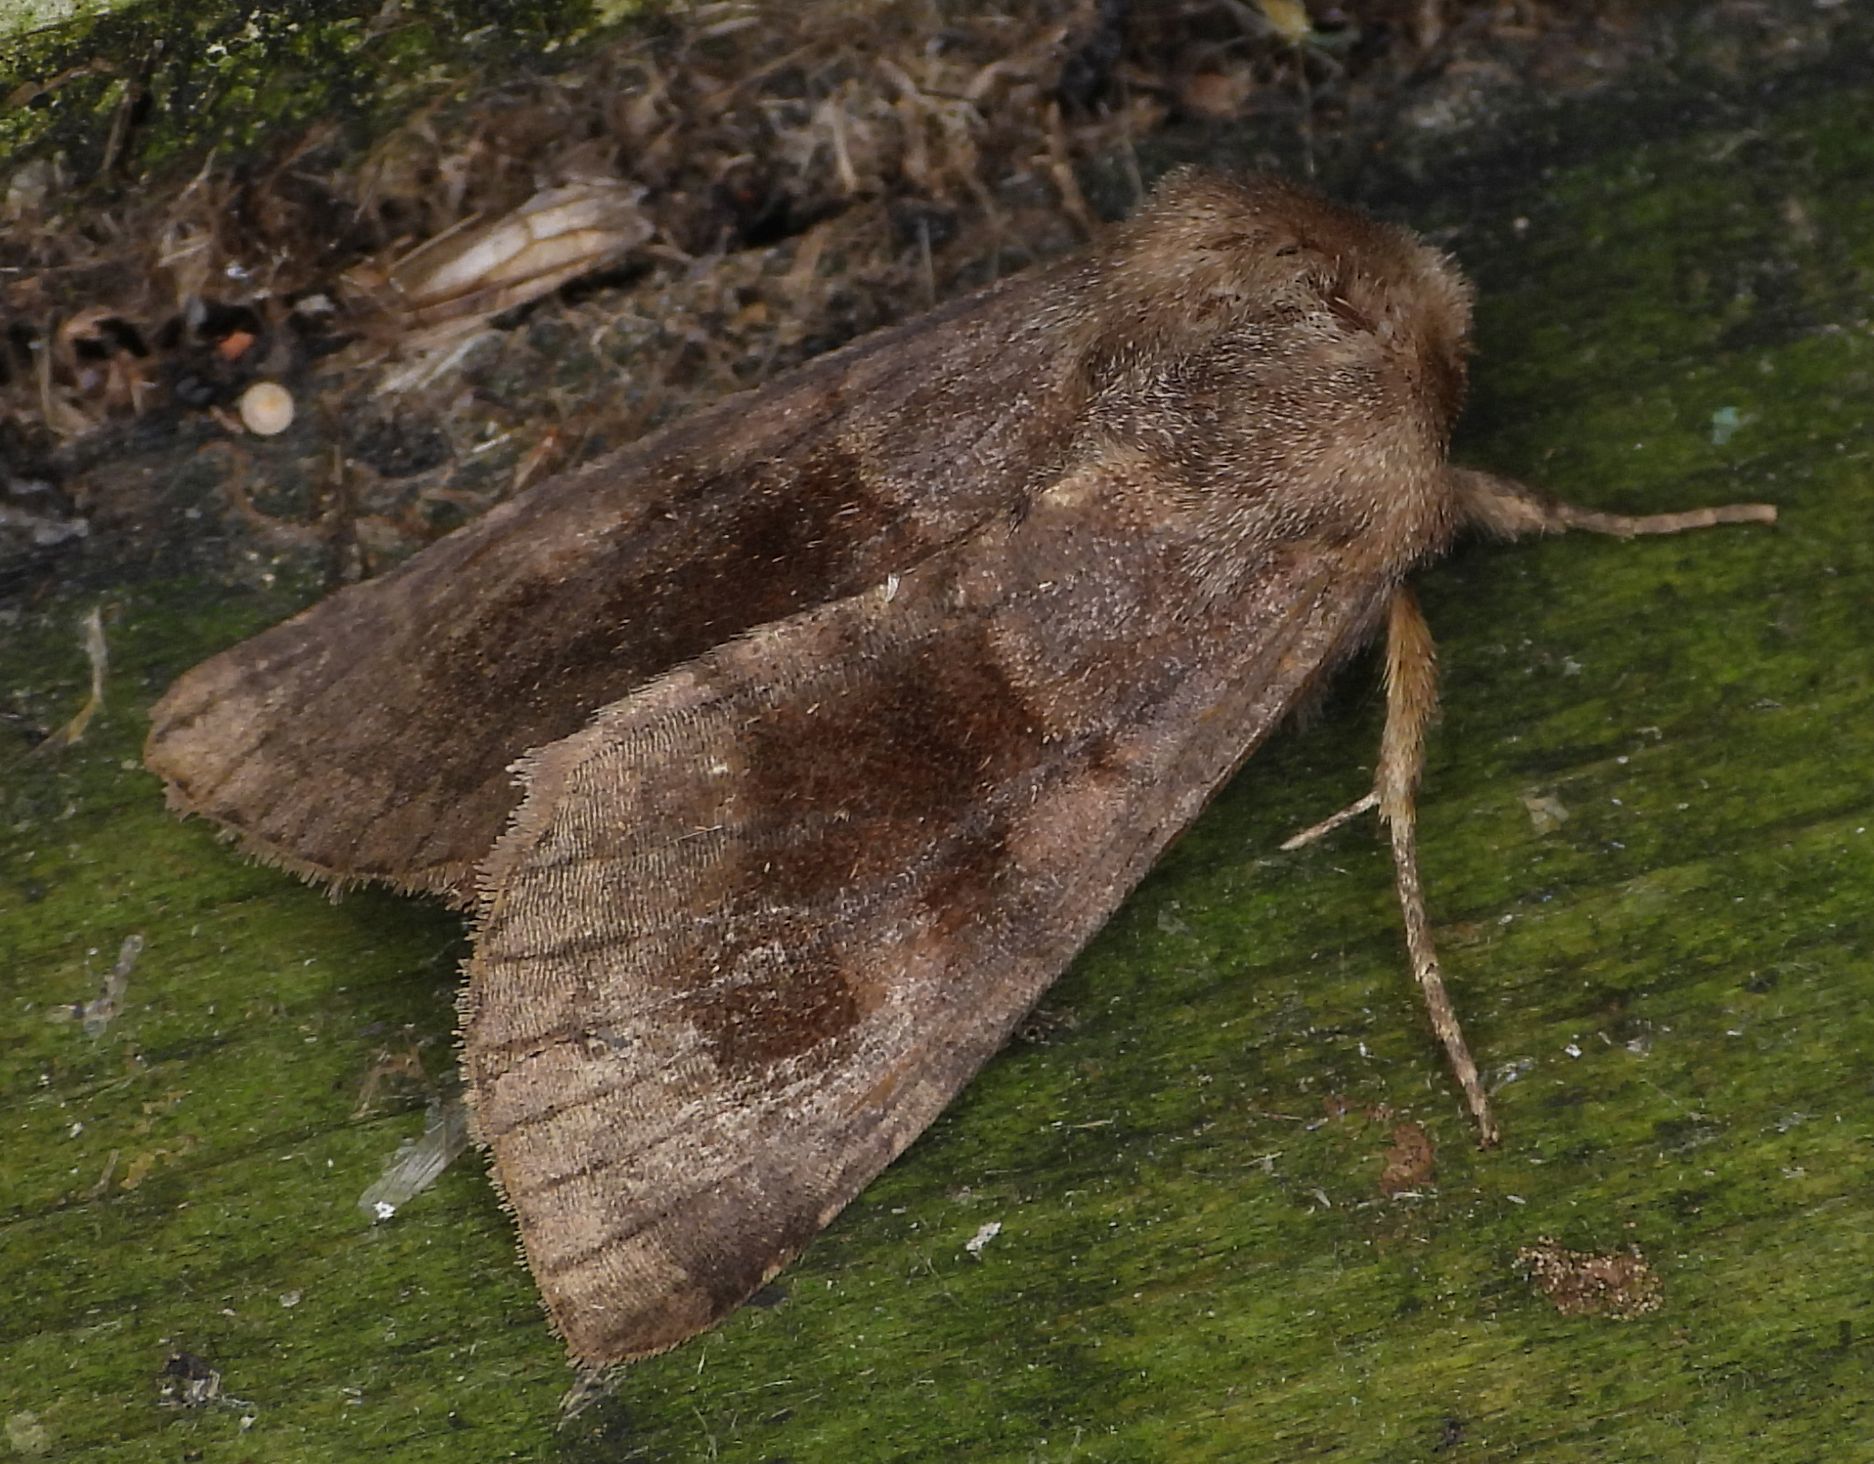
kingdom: Animalia
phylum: Arthropoda
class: Insecta
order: Lepidoptera
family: Noctuidae
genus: Nephelodes
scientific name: Nephelodes minians
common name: Bronzed cutworm
